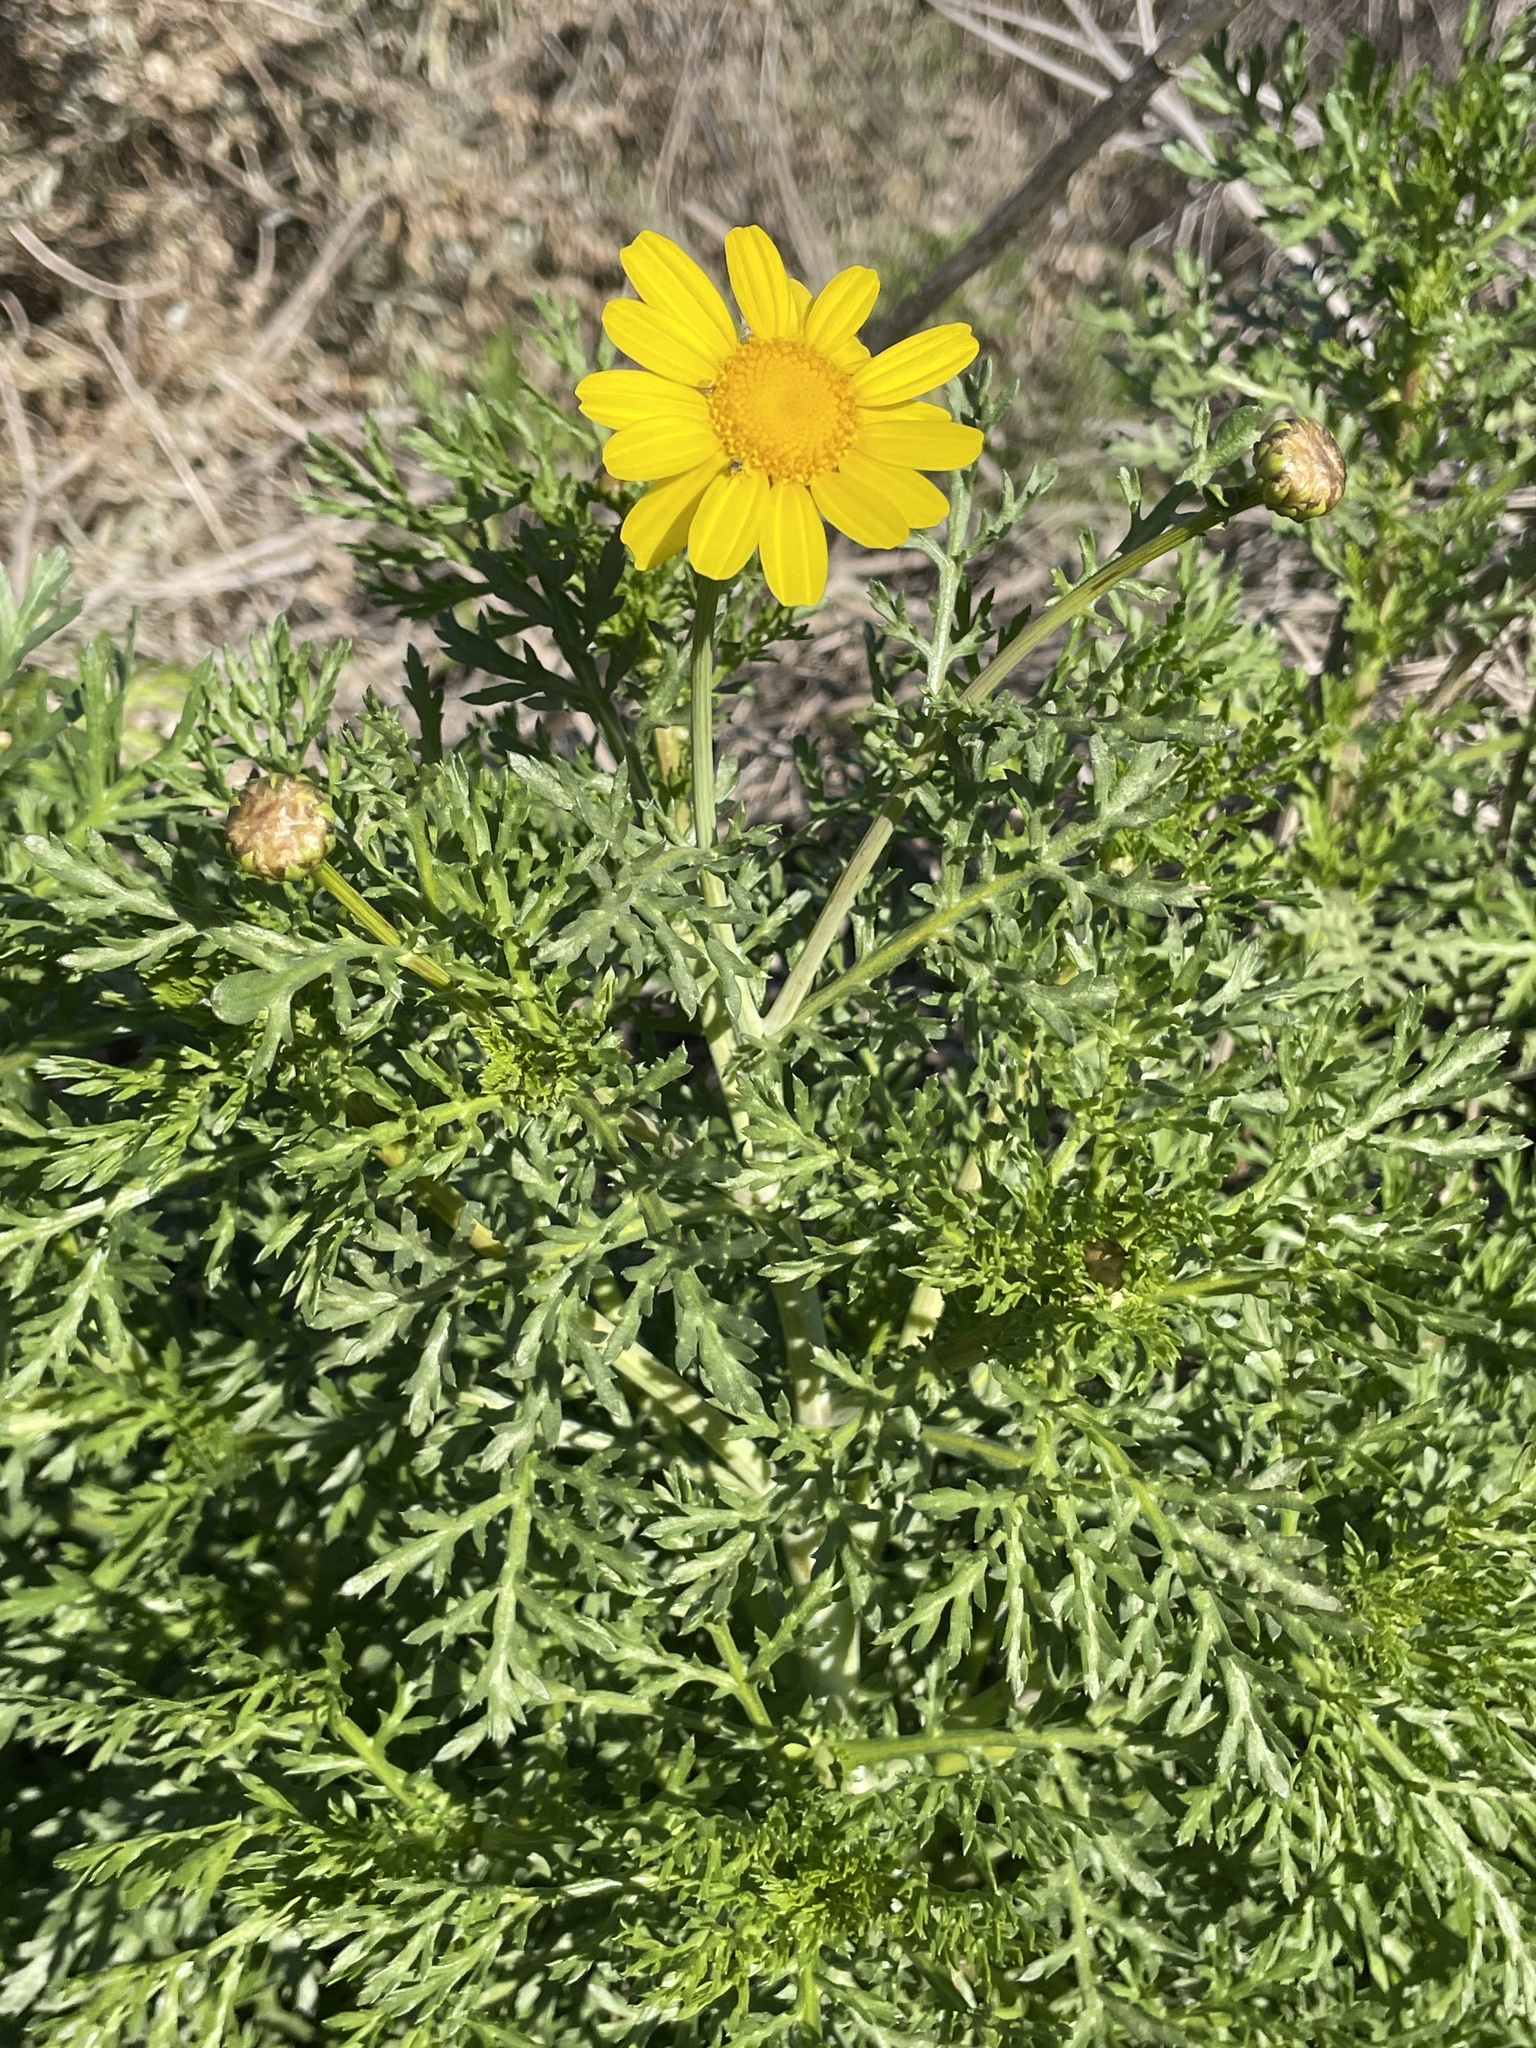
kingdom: Plantae
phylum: Tracheophyta
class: Magnoliopsida
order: Asterales
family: Asteraceae
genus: Glebionis
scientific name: Glebionis coronaria
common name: Crowndaisy
